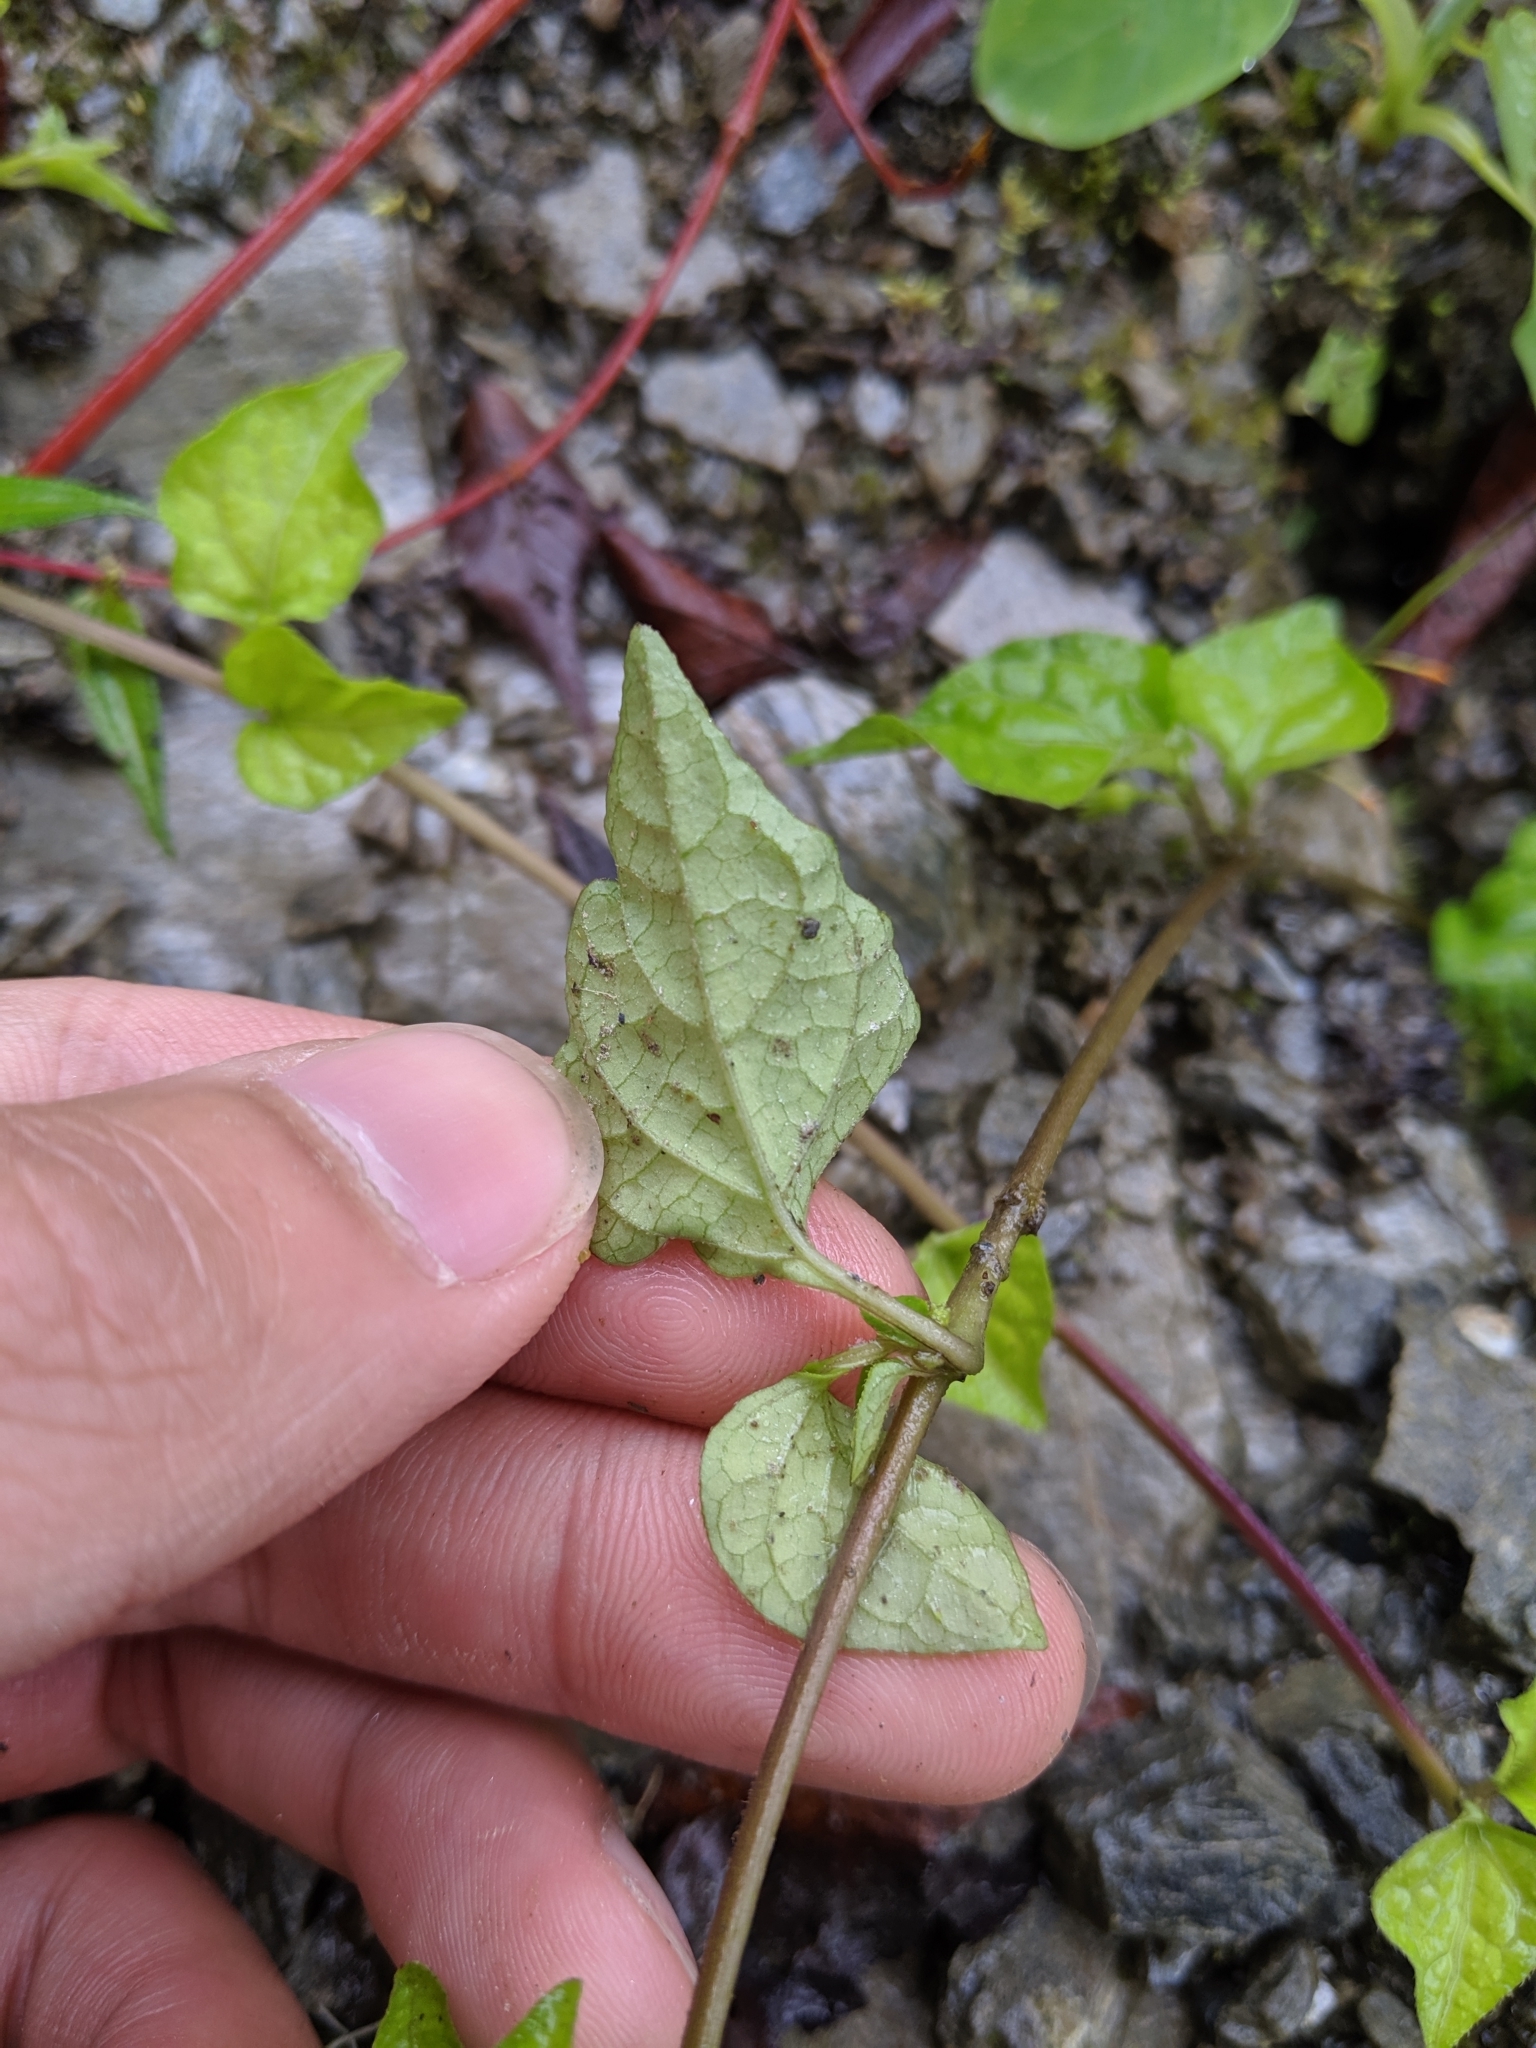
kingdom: Plantae
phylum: Tracheophyta
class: Magnoliopsida
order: Solanales
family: Solanaceae
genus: Lycianthes
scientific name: Lycianthes lysimachioides
